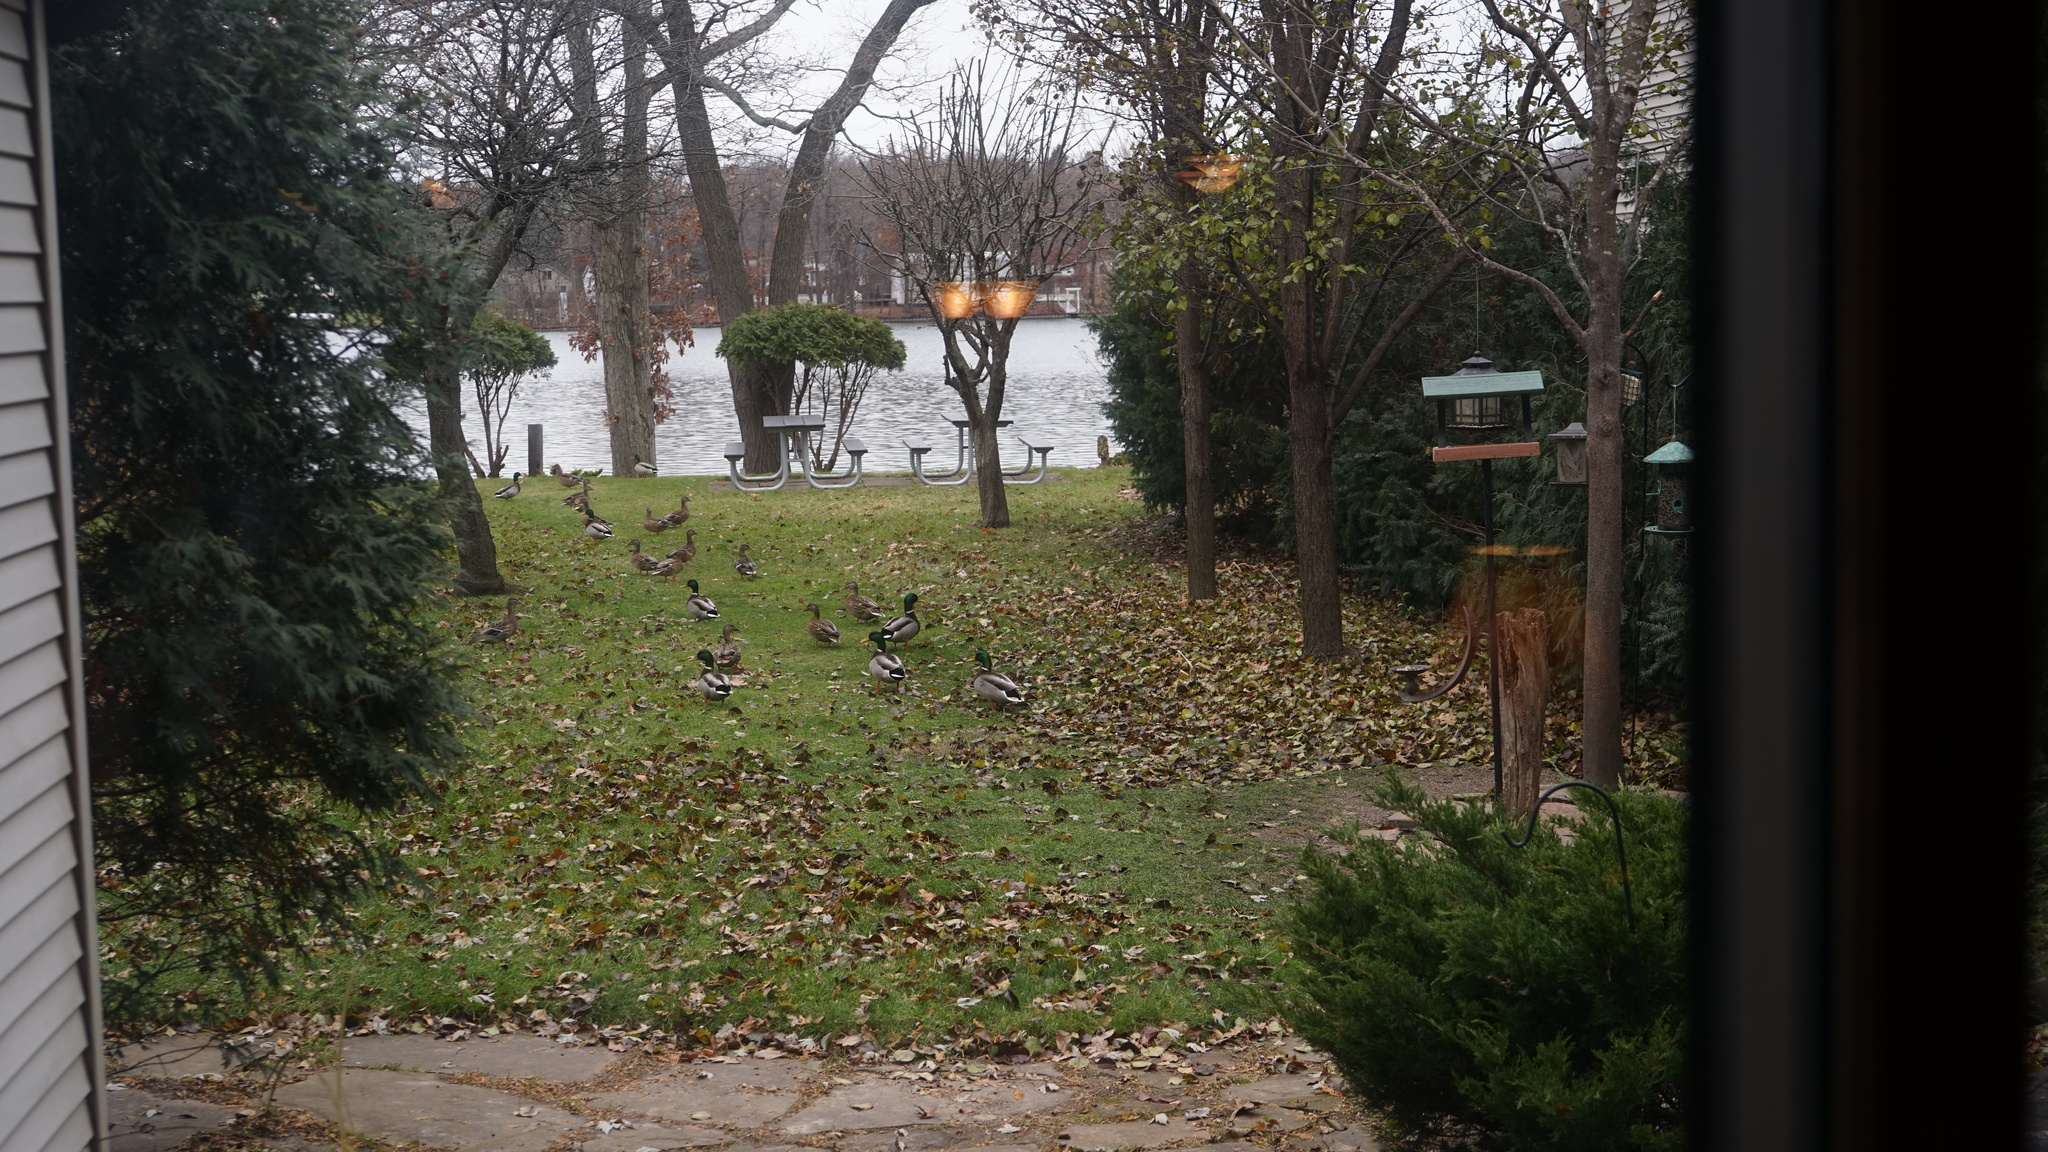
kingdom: Animalia
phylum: Chordata
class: Aves
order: Anseriformes
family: Anatidae
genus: Anas
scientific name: Anas platyrhynchos
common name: Mallard
